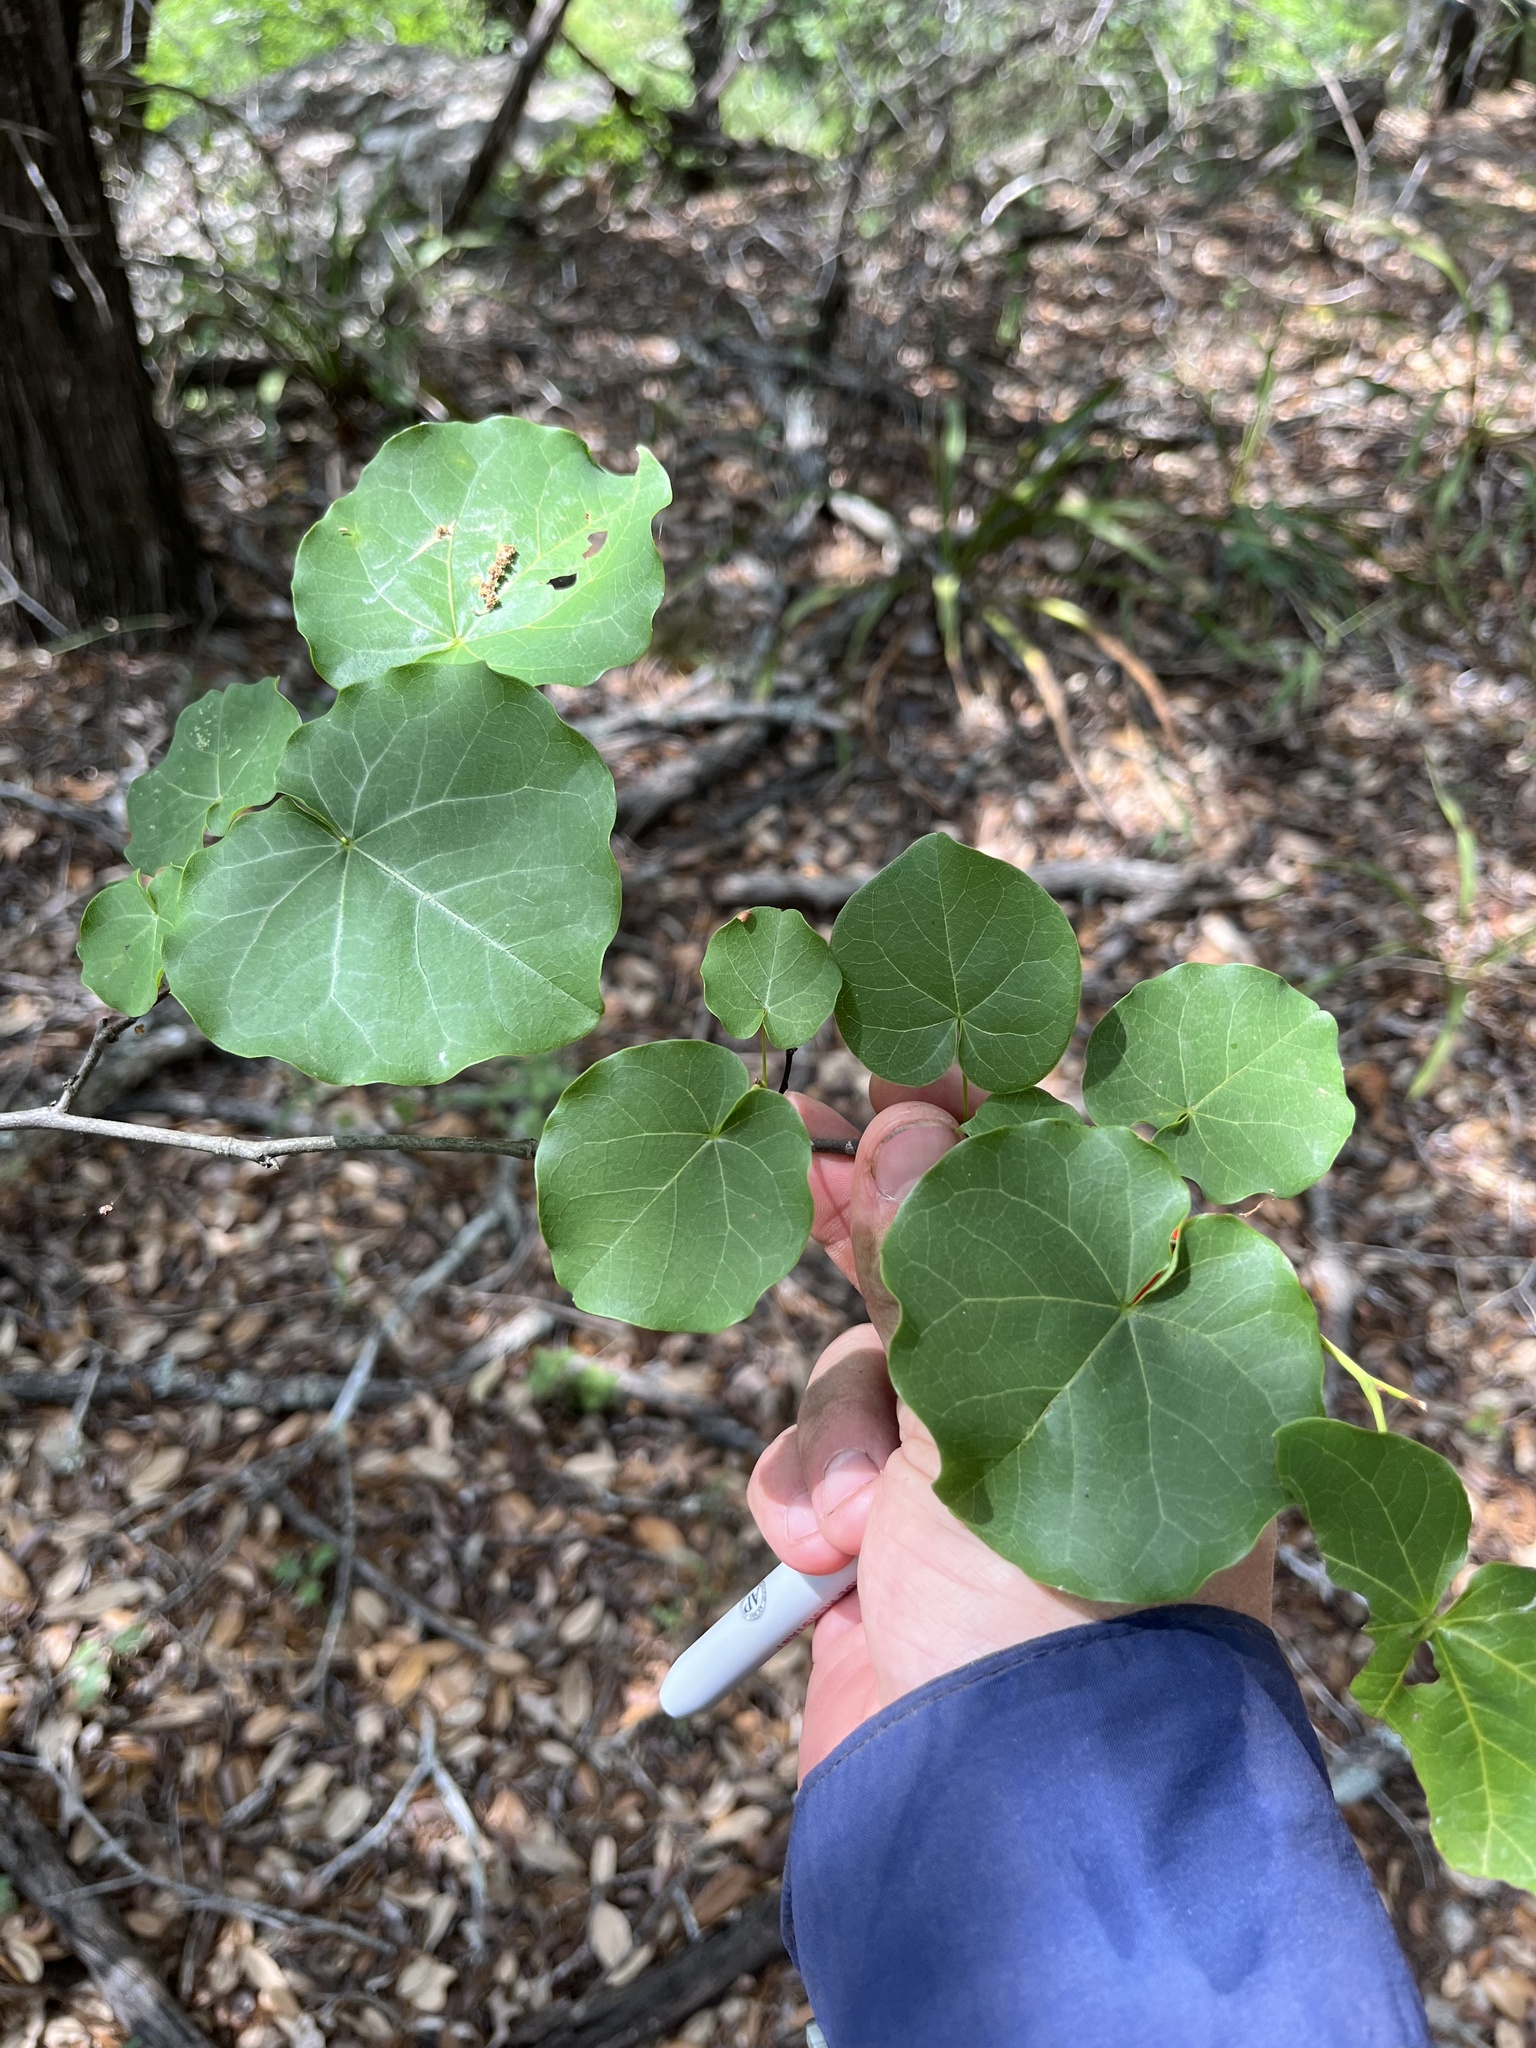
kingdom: Plantae
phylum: Tracheophyta
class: Magnoliopsida
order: Fabales
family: Fabaceae
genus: Cercis
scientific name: Cercis canadensis
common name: Eastern redbud
